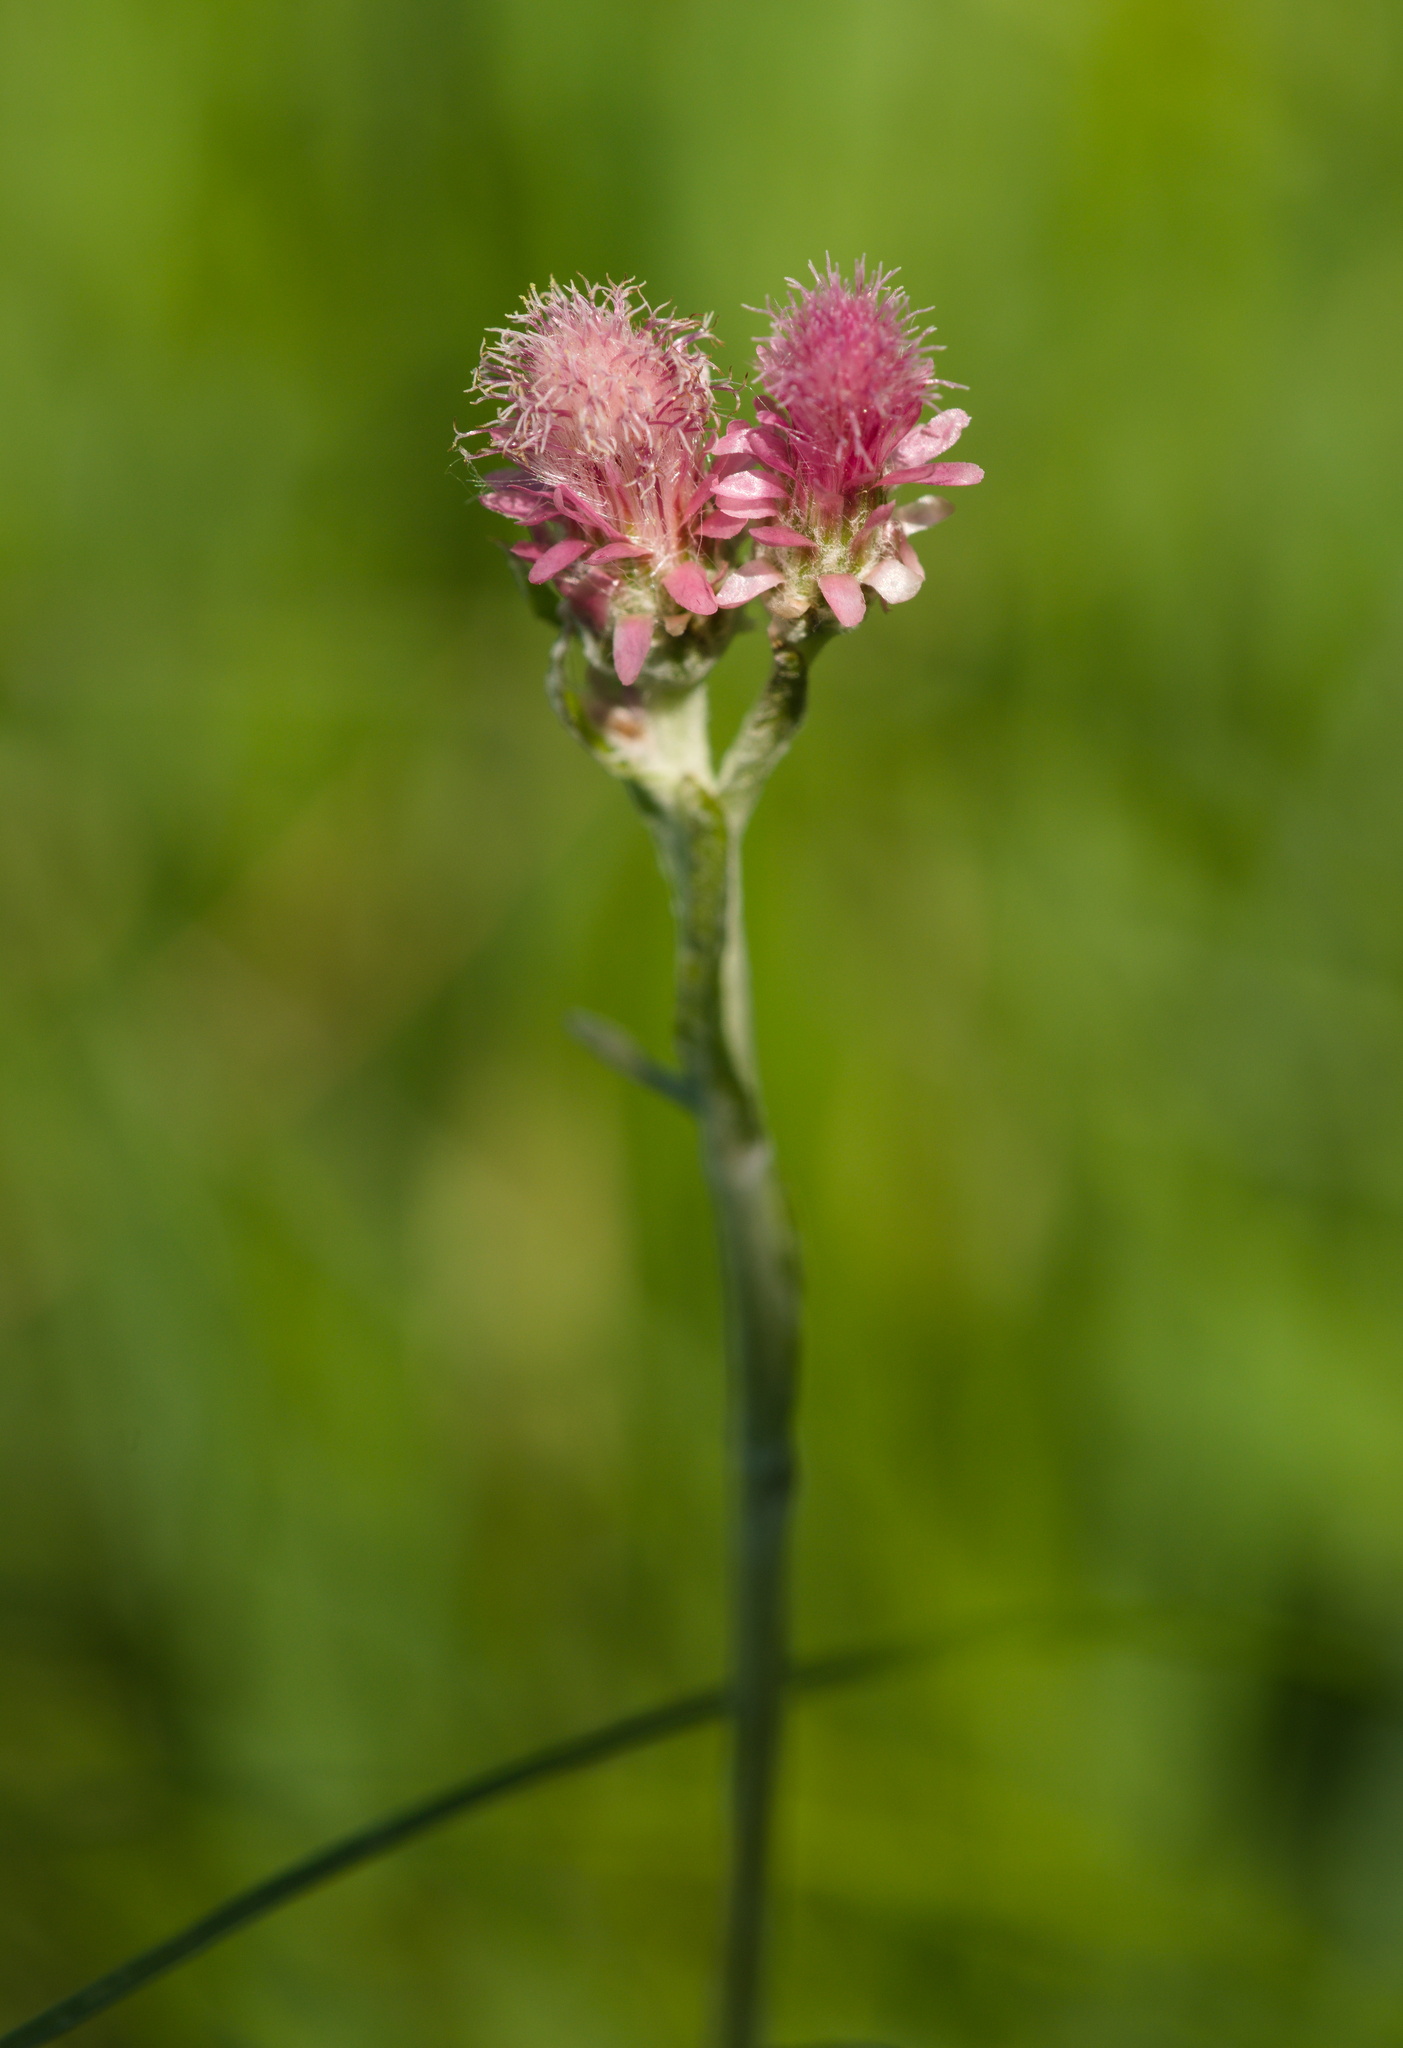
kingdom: Plantae
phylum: Tracheophyta
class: Magnoliopsida
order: Asterales
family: Asteraceae
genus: Antennaria
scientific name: Antennaria dioica
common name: Mountain everlasting
